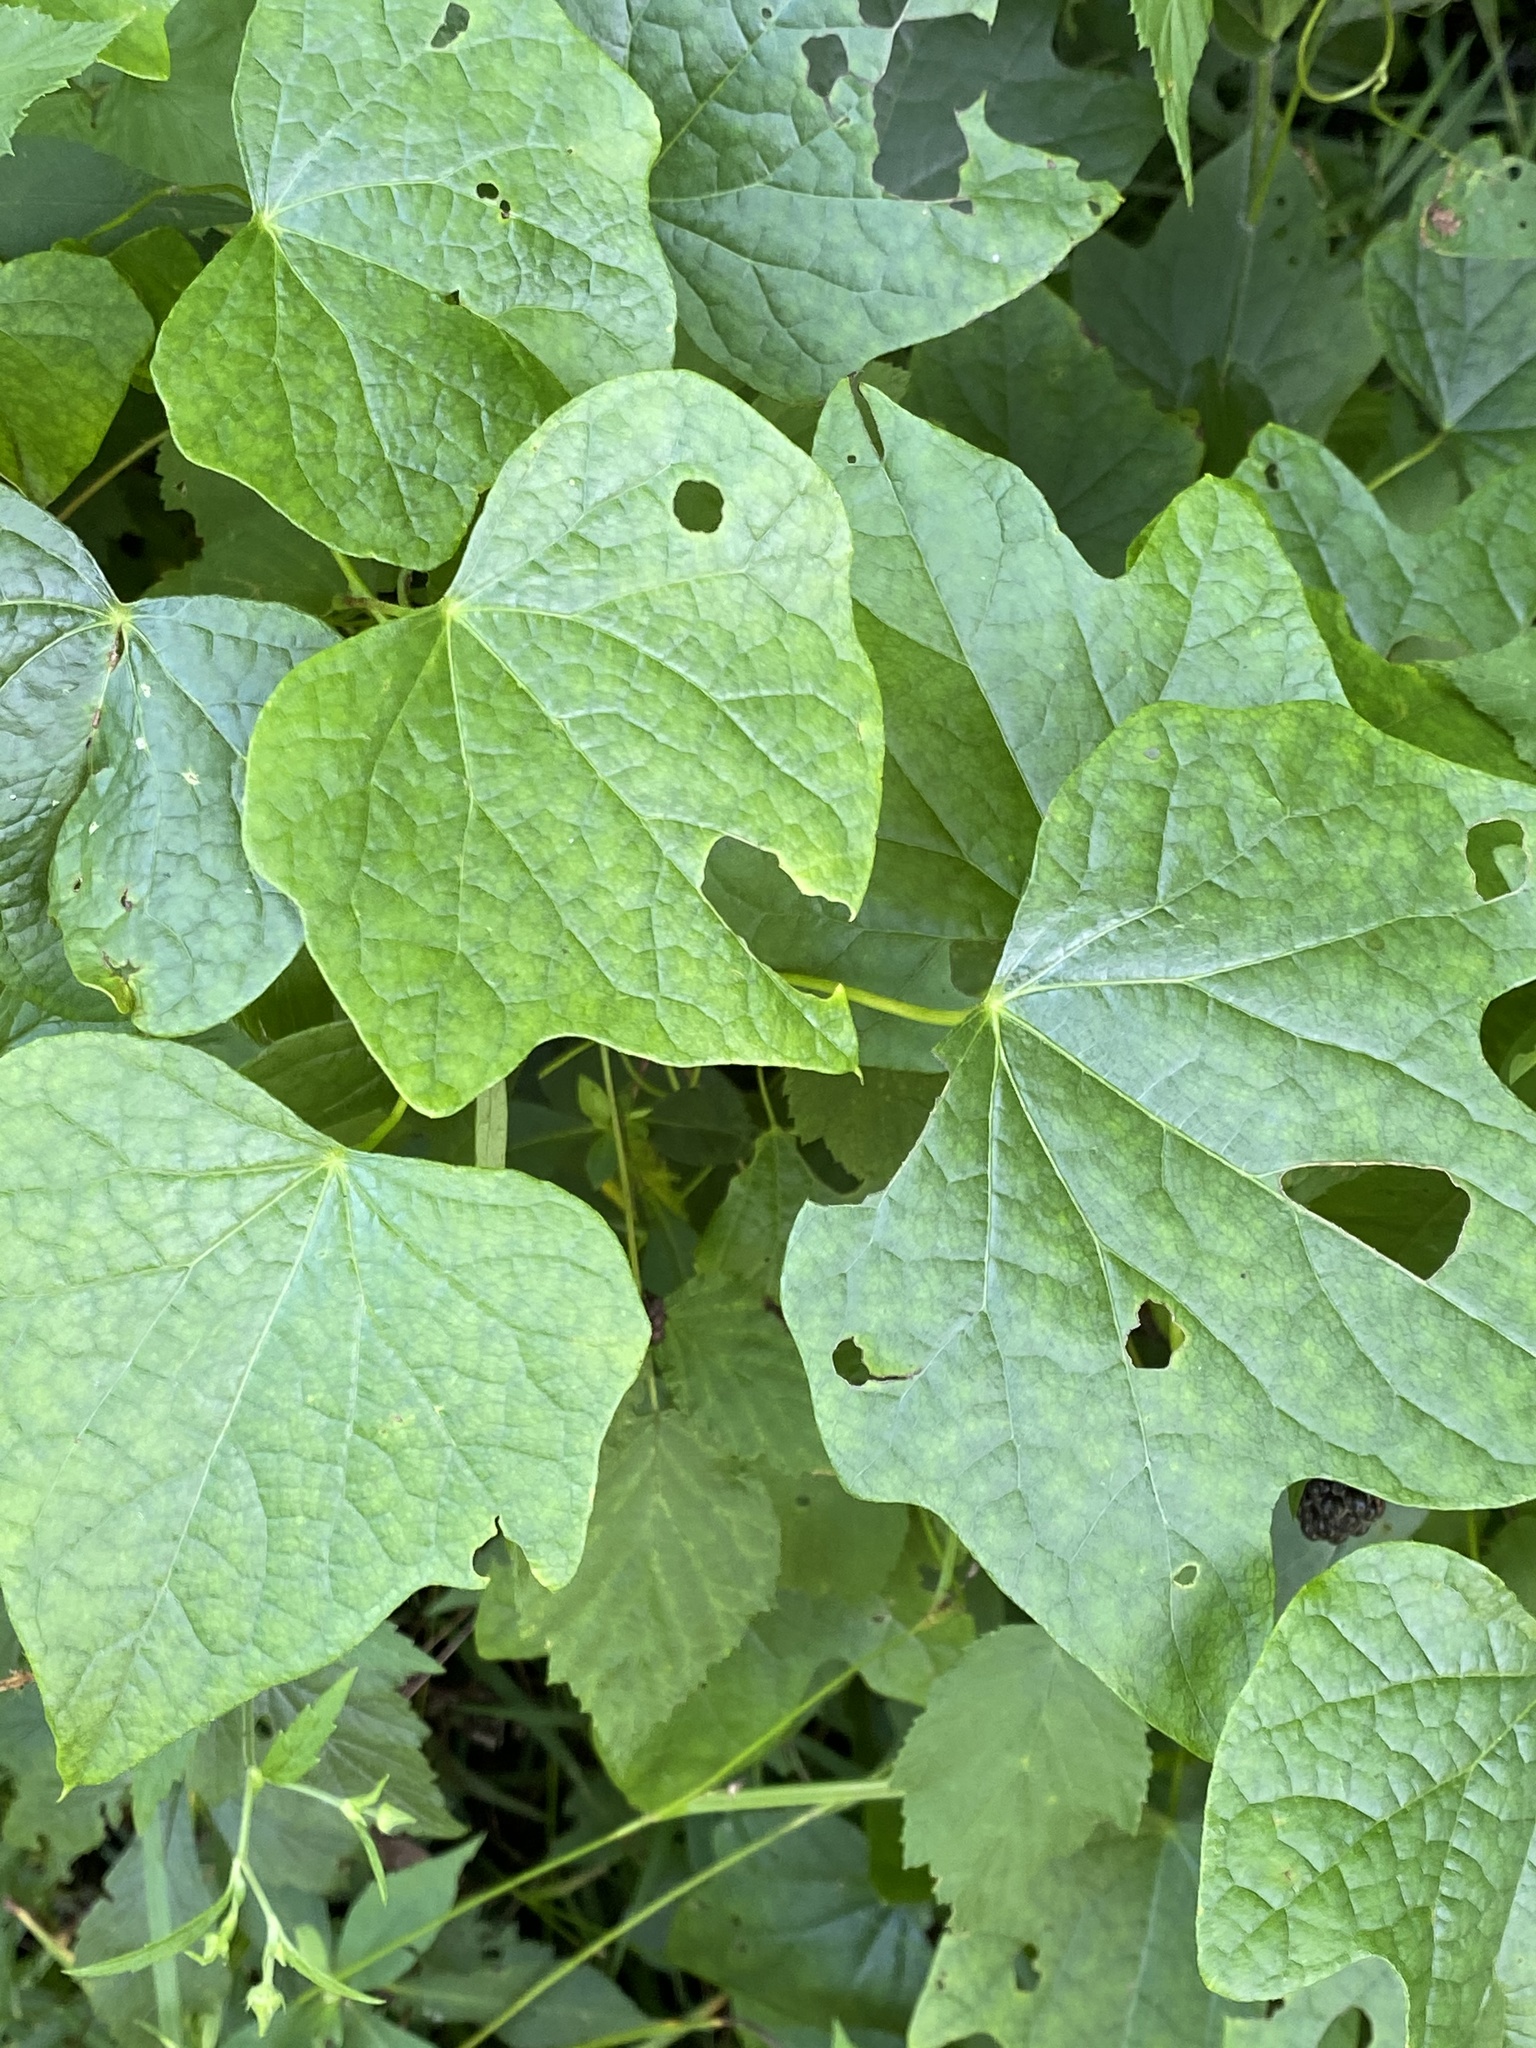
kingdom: Plantae
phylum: Tracheophyta
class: Magnoliopsida
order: Ranunculales
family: Menispermaceae
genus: Menispermum
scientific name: Menispermum canadense
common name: Moonseed
